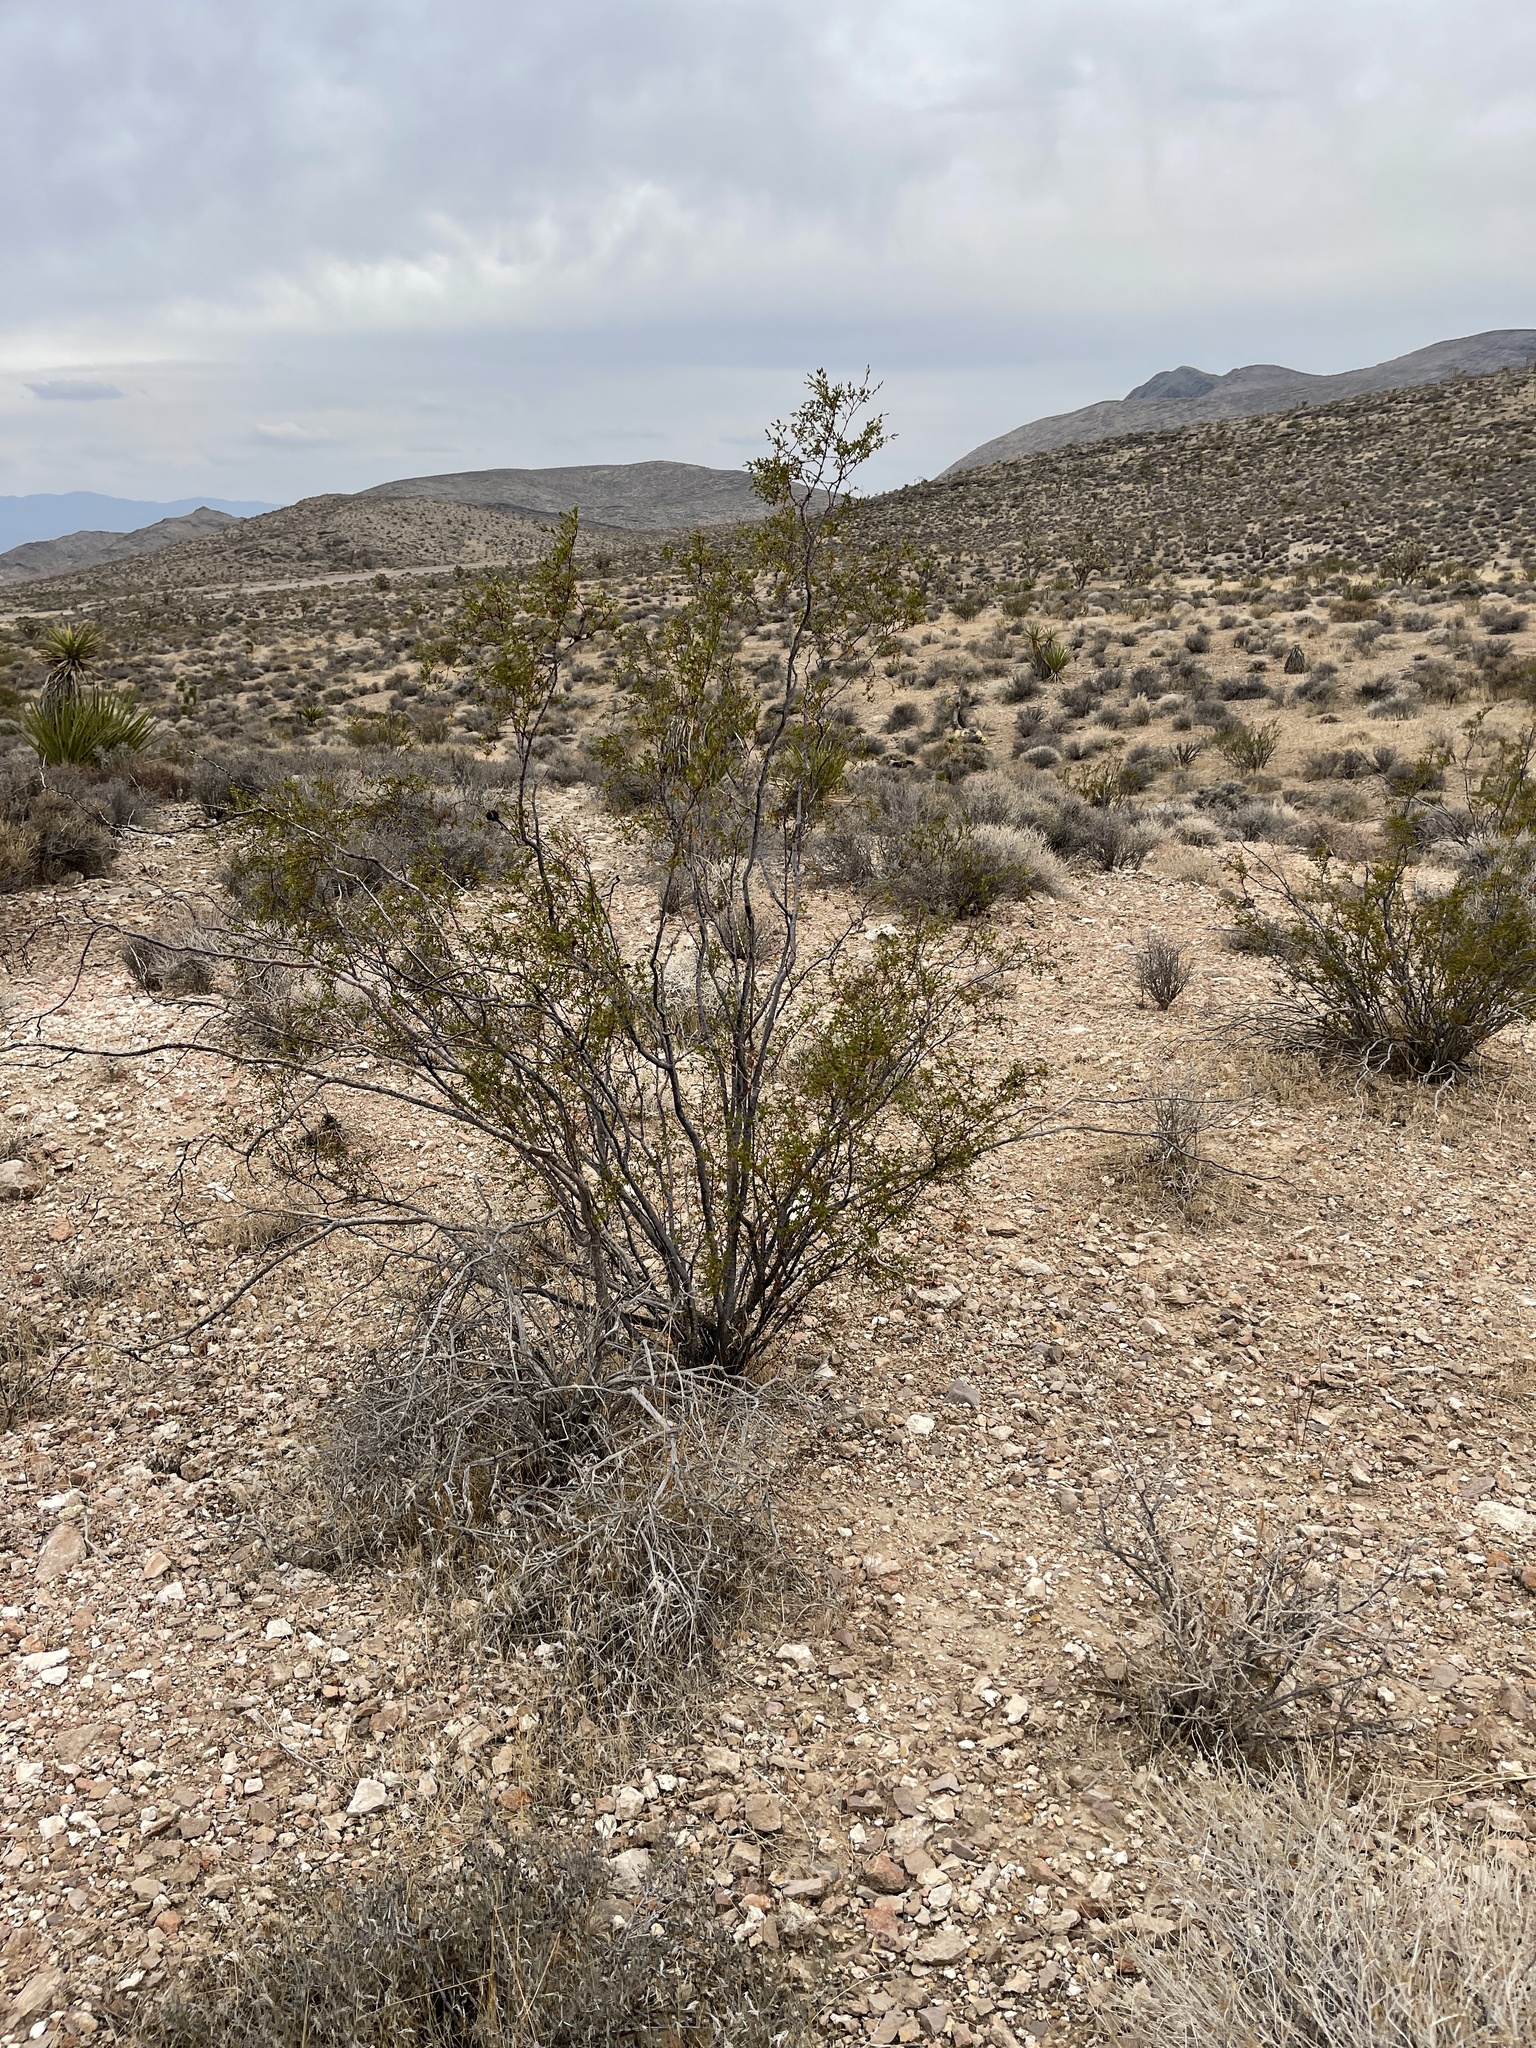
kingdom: Plantae
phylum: Tracheophyta
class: Magnoliopsida
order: Zygophyllales
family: Zygophyllaceae
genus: Larrea
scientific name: Larrea tridentata
